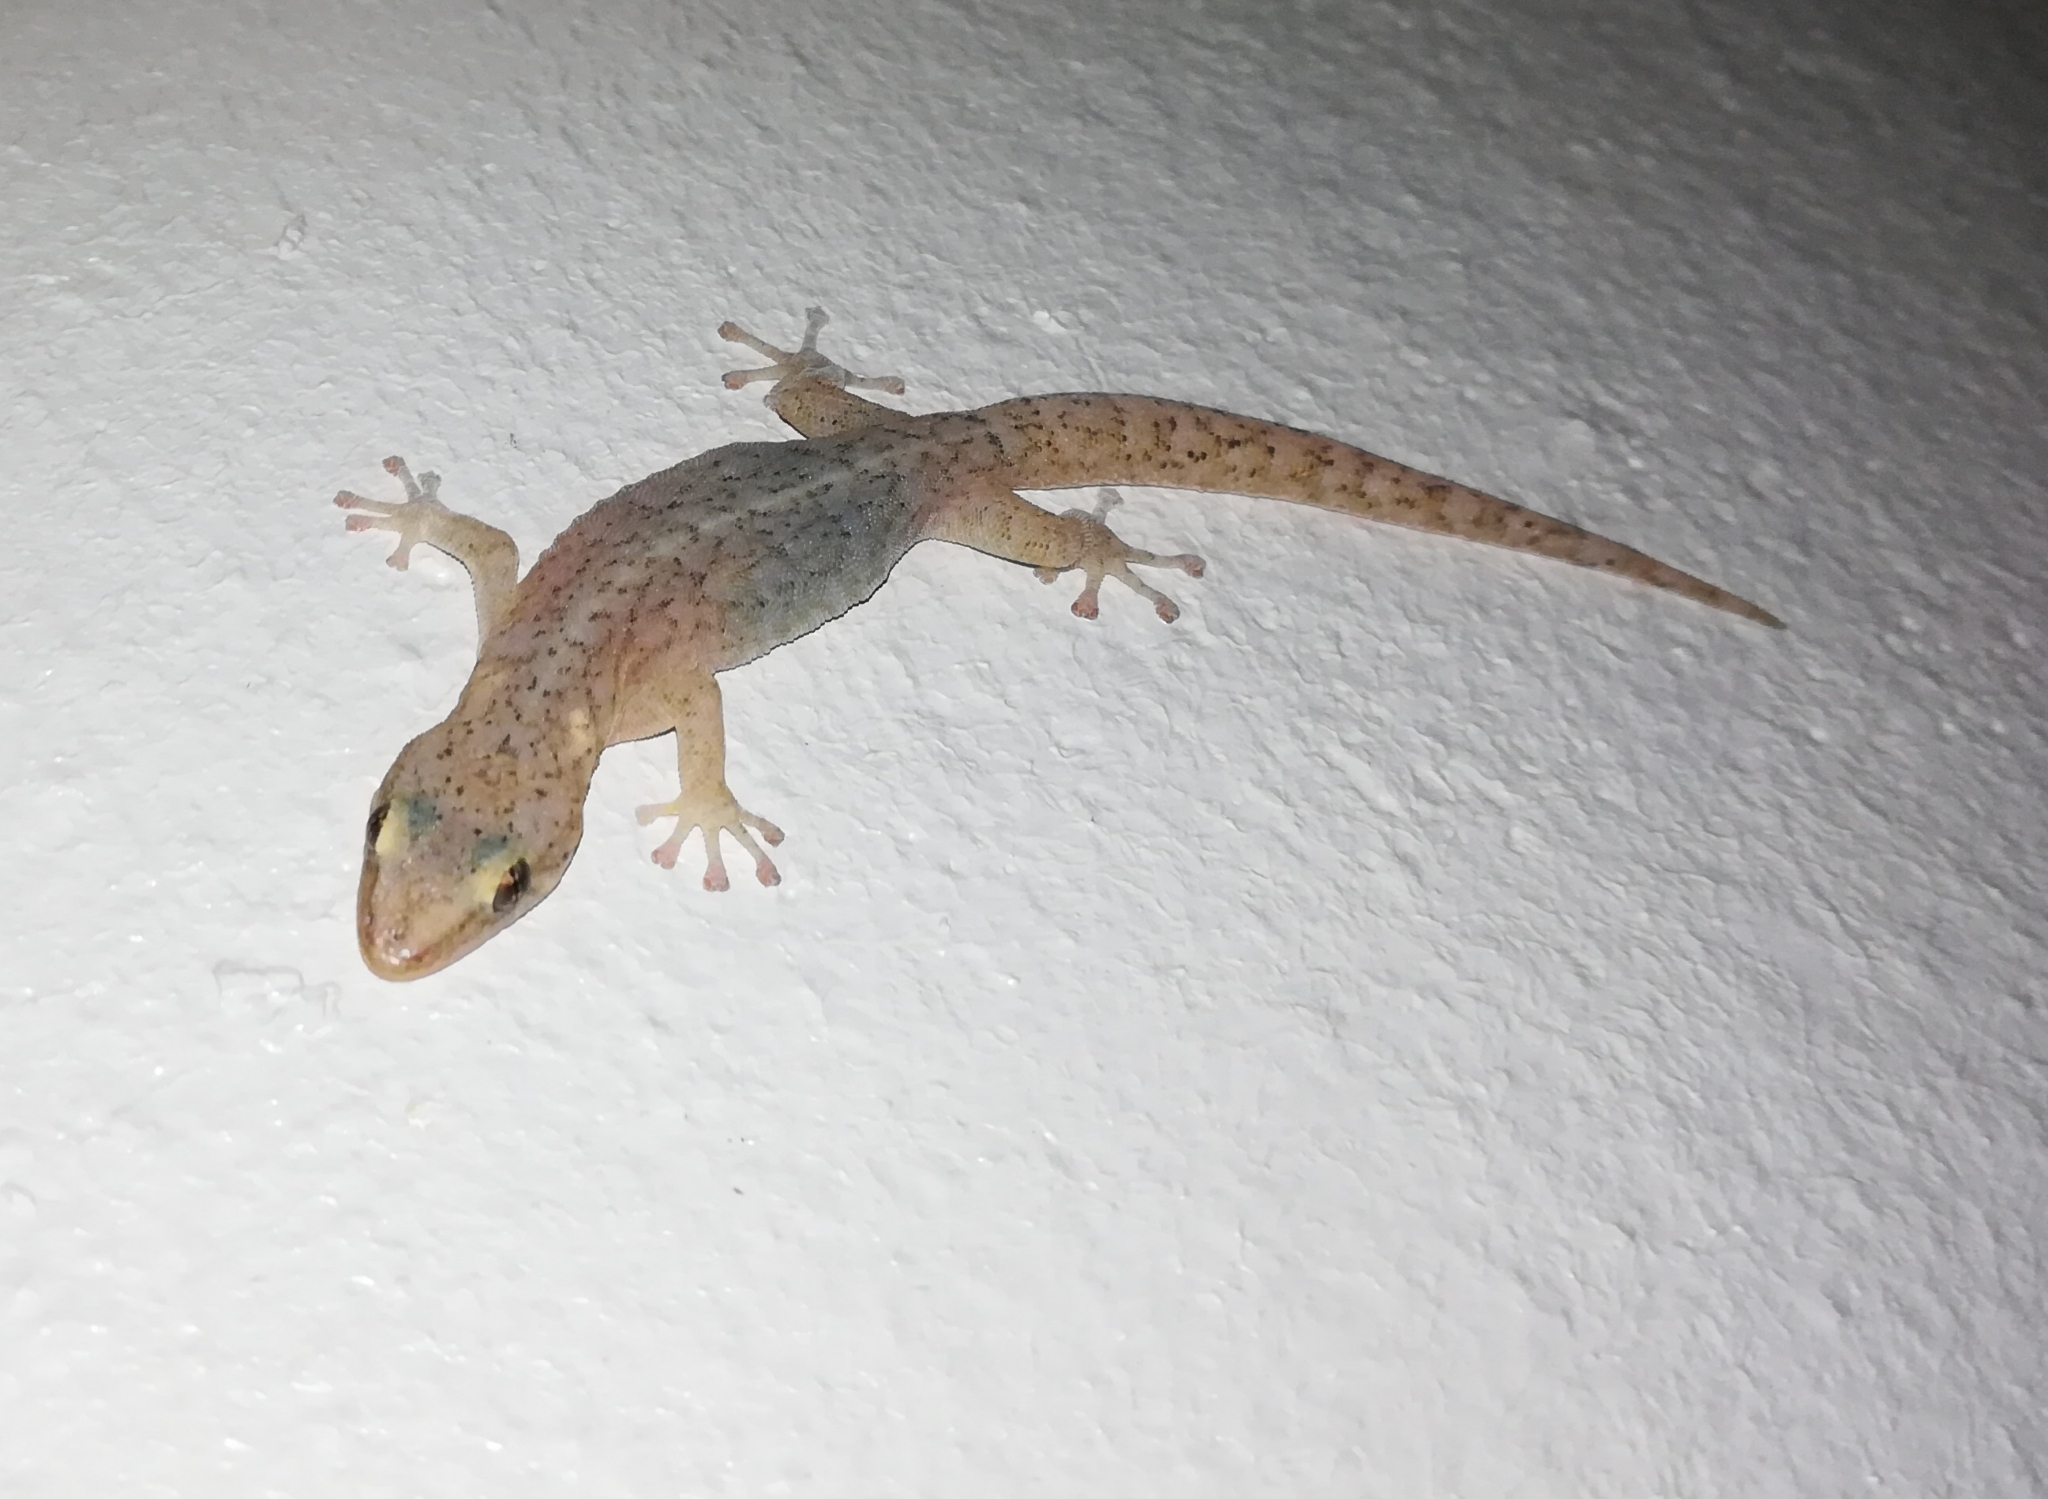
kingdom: Animalia
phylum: Chordata
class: Squamata
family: Gekkonidae
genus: Afrogecko
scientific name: Afrogecko porphyreus
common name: Marbled leaf-toed gecko
